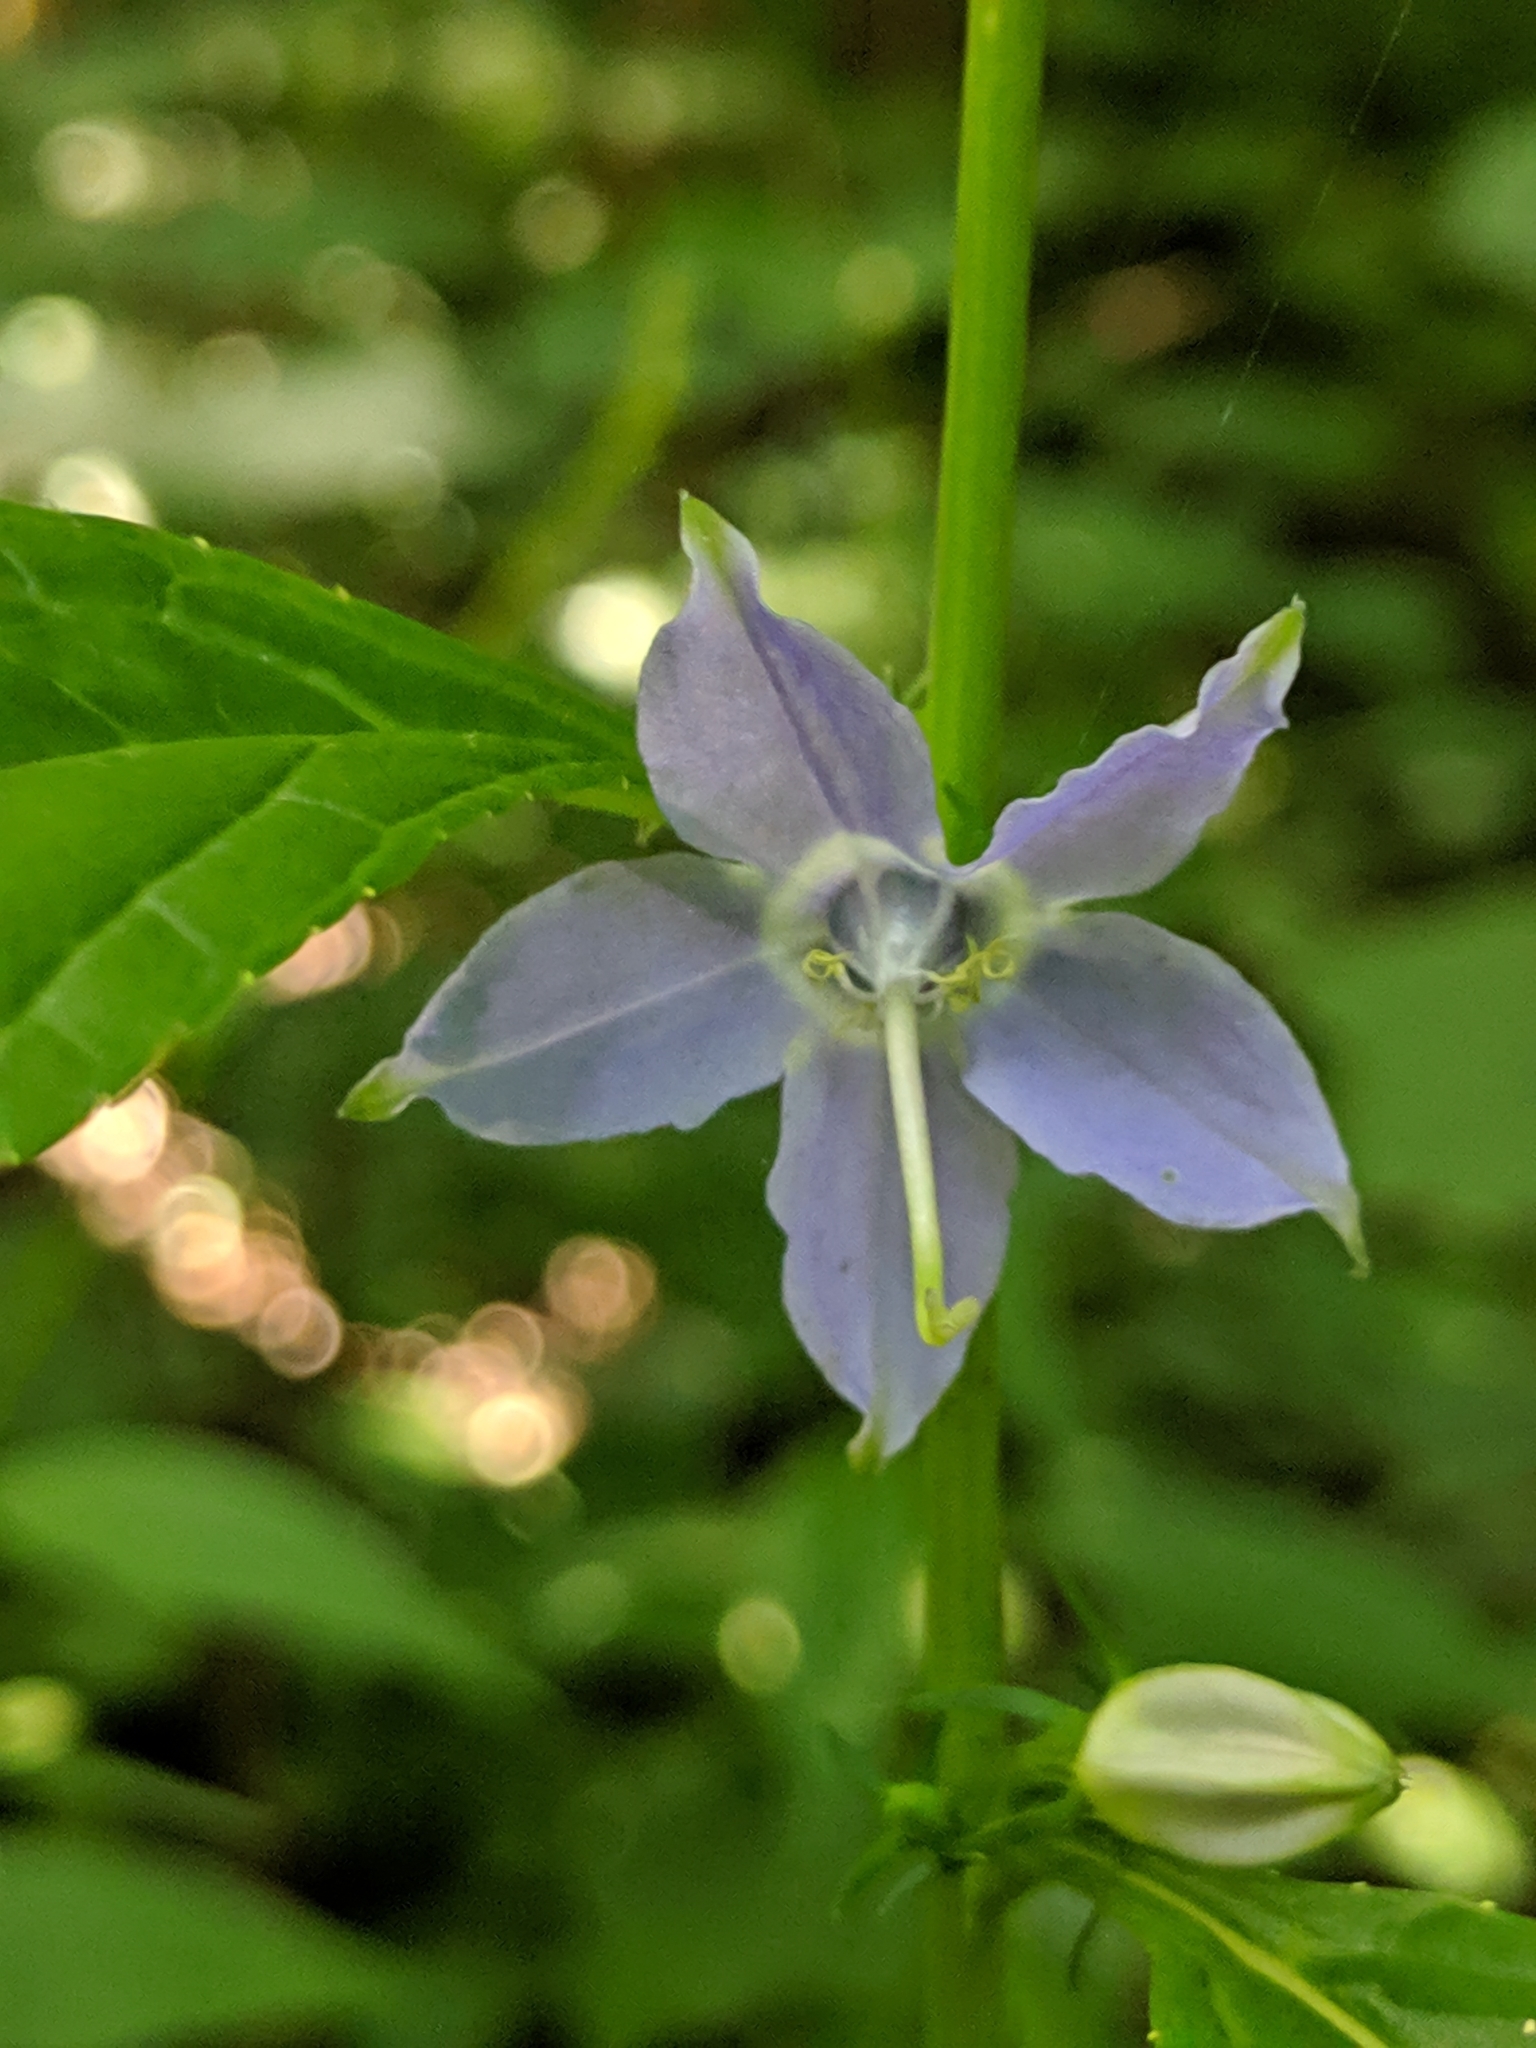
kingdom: Plantae
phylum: Tracheophyta
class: Magnoliopsida
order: Asterales
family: Campanulaceae
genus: Campanulastrum
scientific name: Campanulastrum americanum
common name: American bellflower
